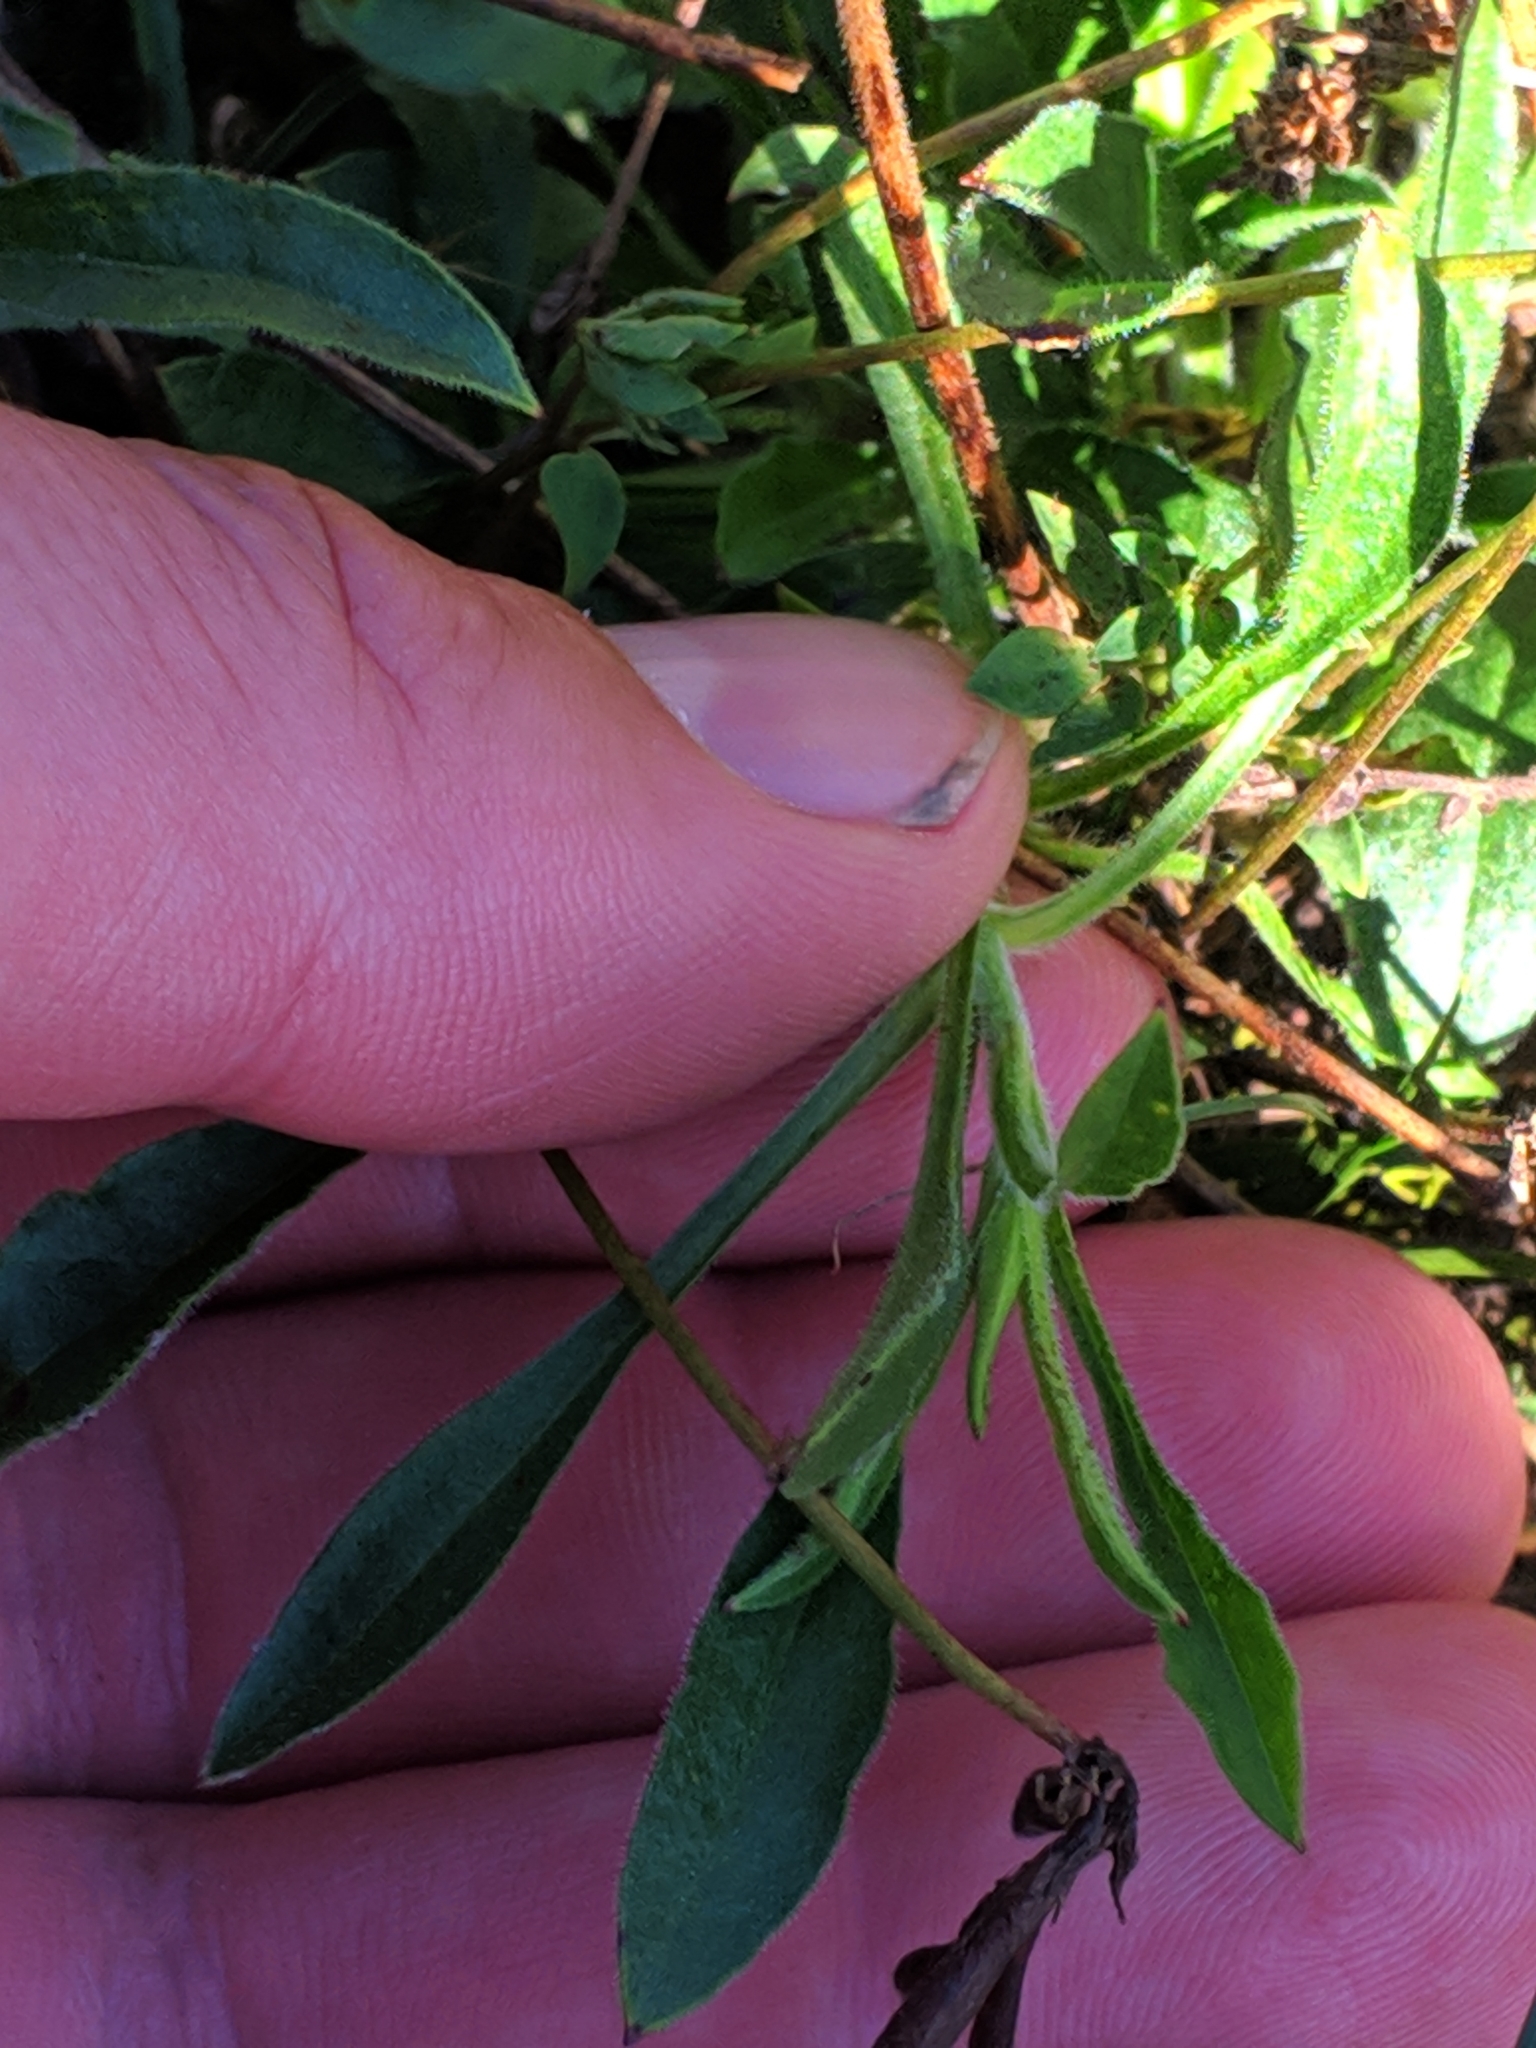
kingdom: Plantae
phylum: Tracheophyta
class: Magnoliopsida
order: Caryophyllales
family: Caryophyllaceae
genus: Silene
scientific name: Silene nutans
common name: Nottingham catchfly
